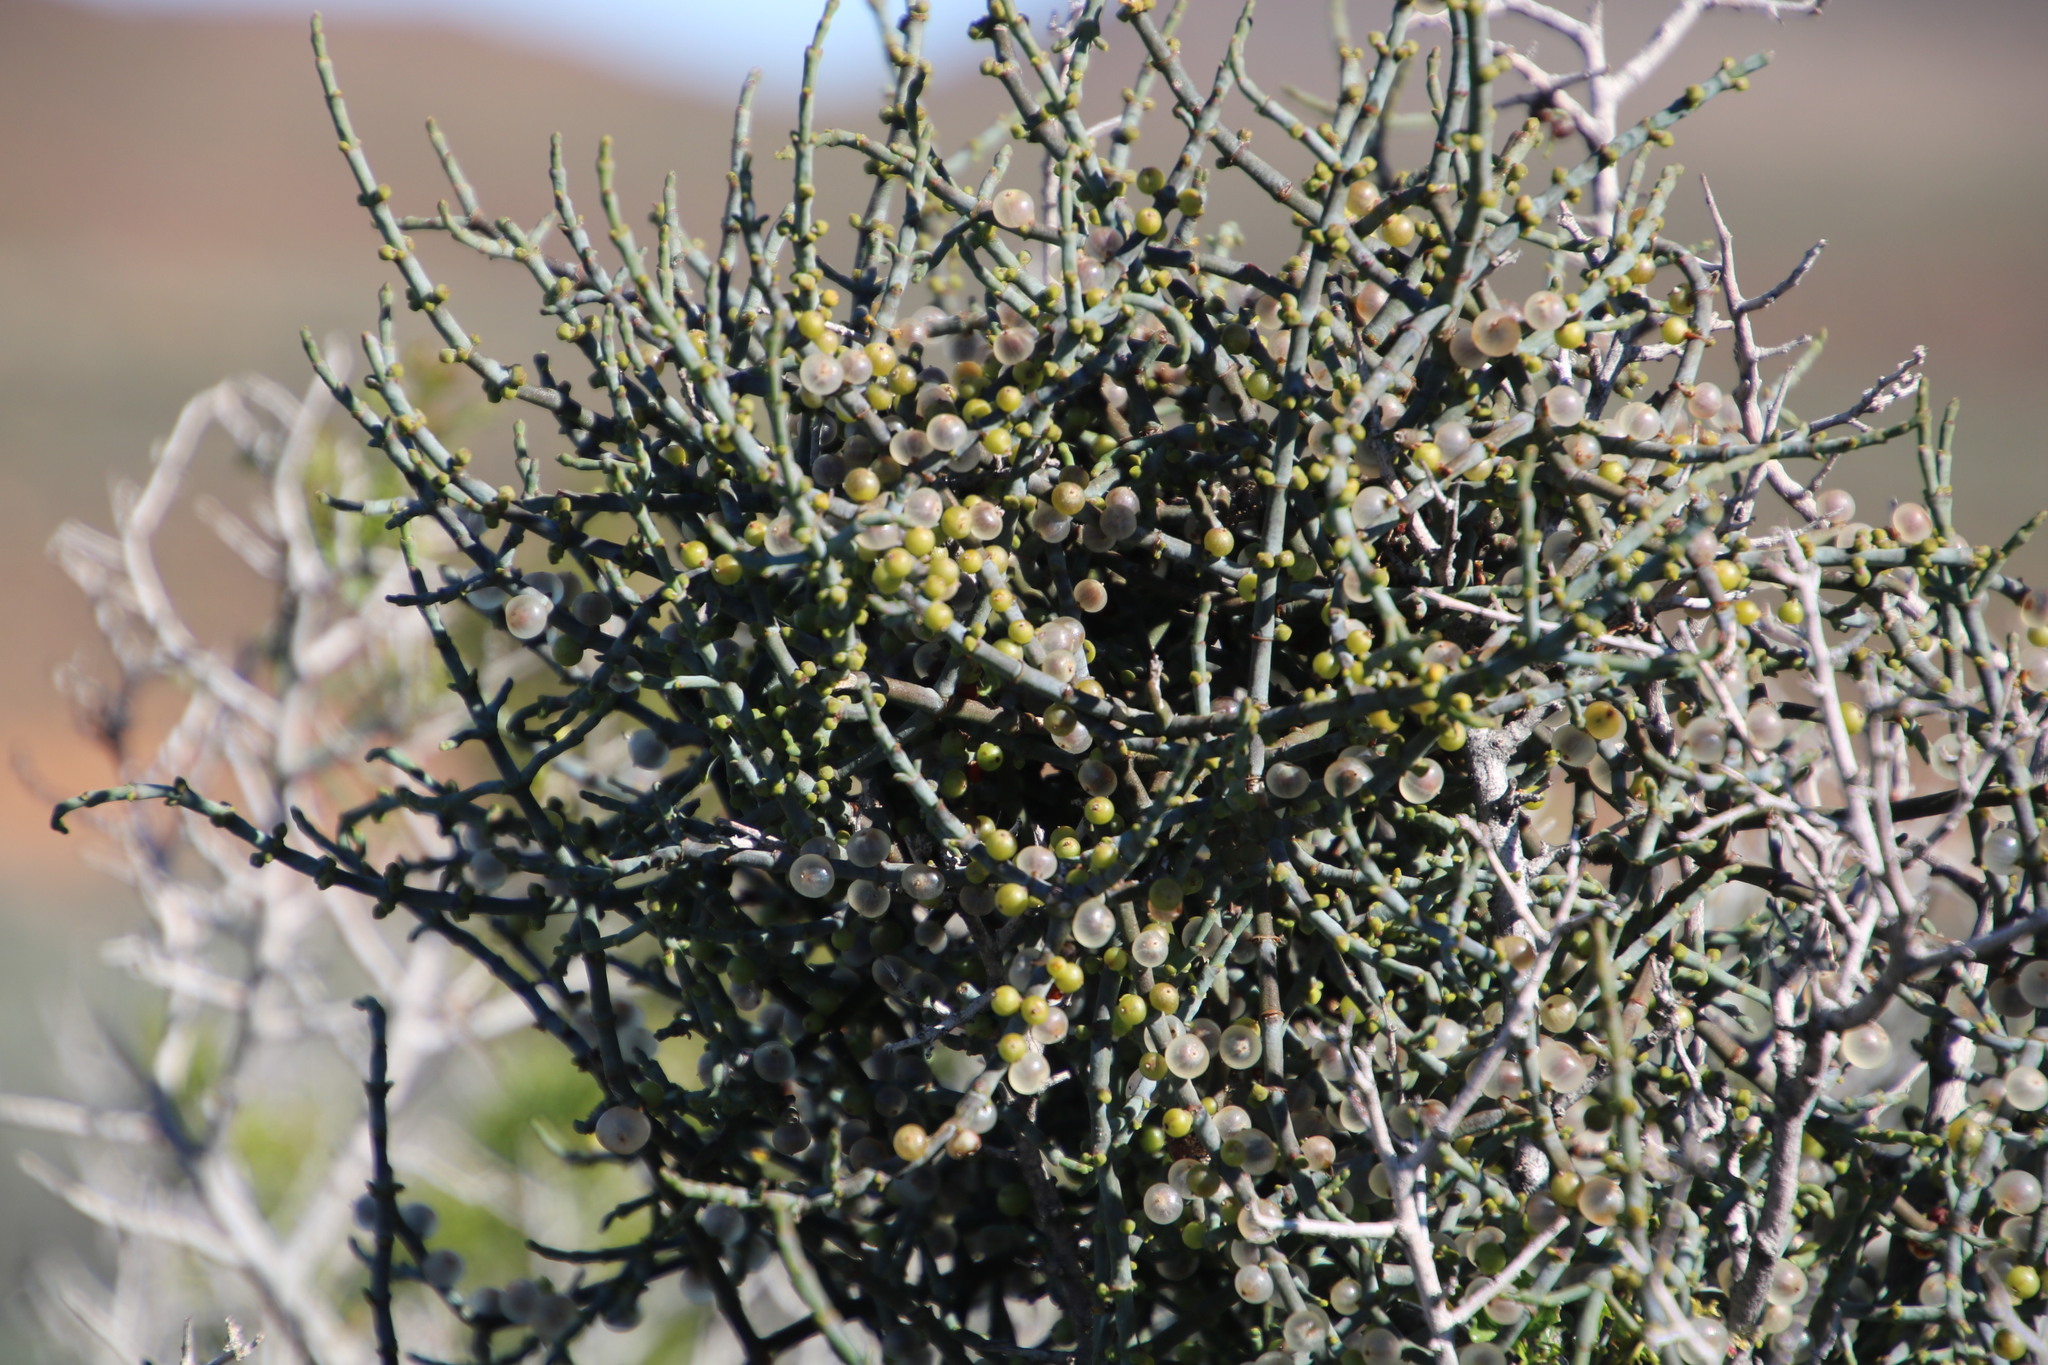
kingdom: Plantae
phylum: Tracheophyta
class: Magnoliopsida
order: Santalales
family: Viscaceae
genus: Viscum
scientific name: Viscum capense
